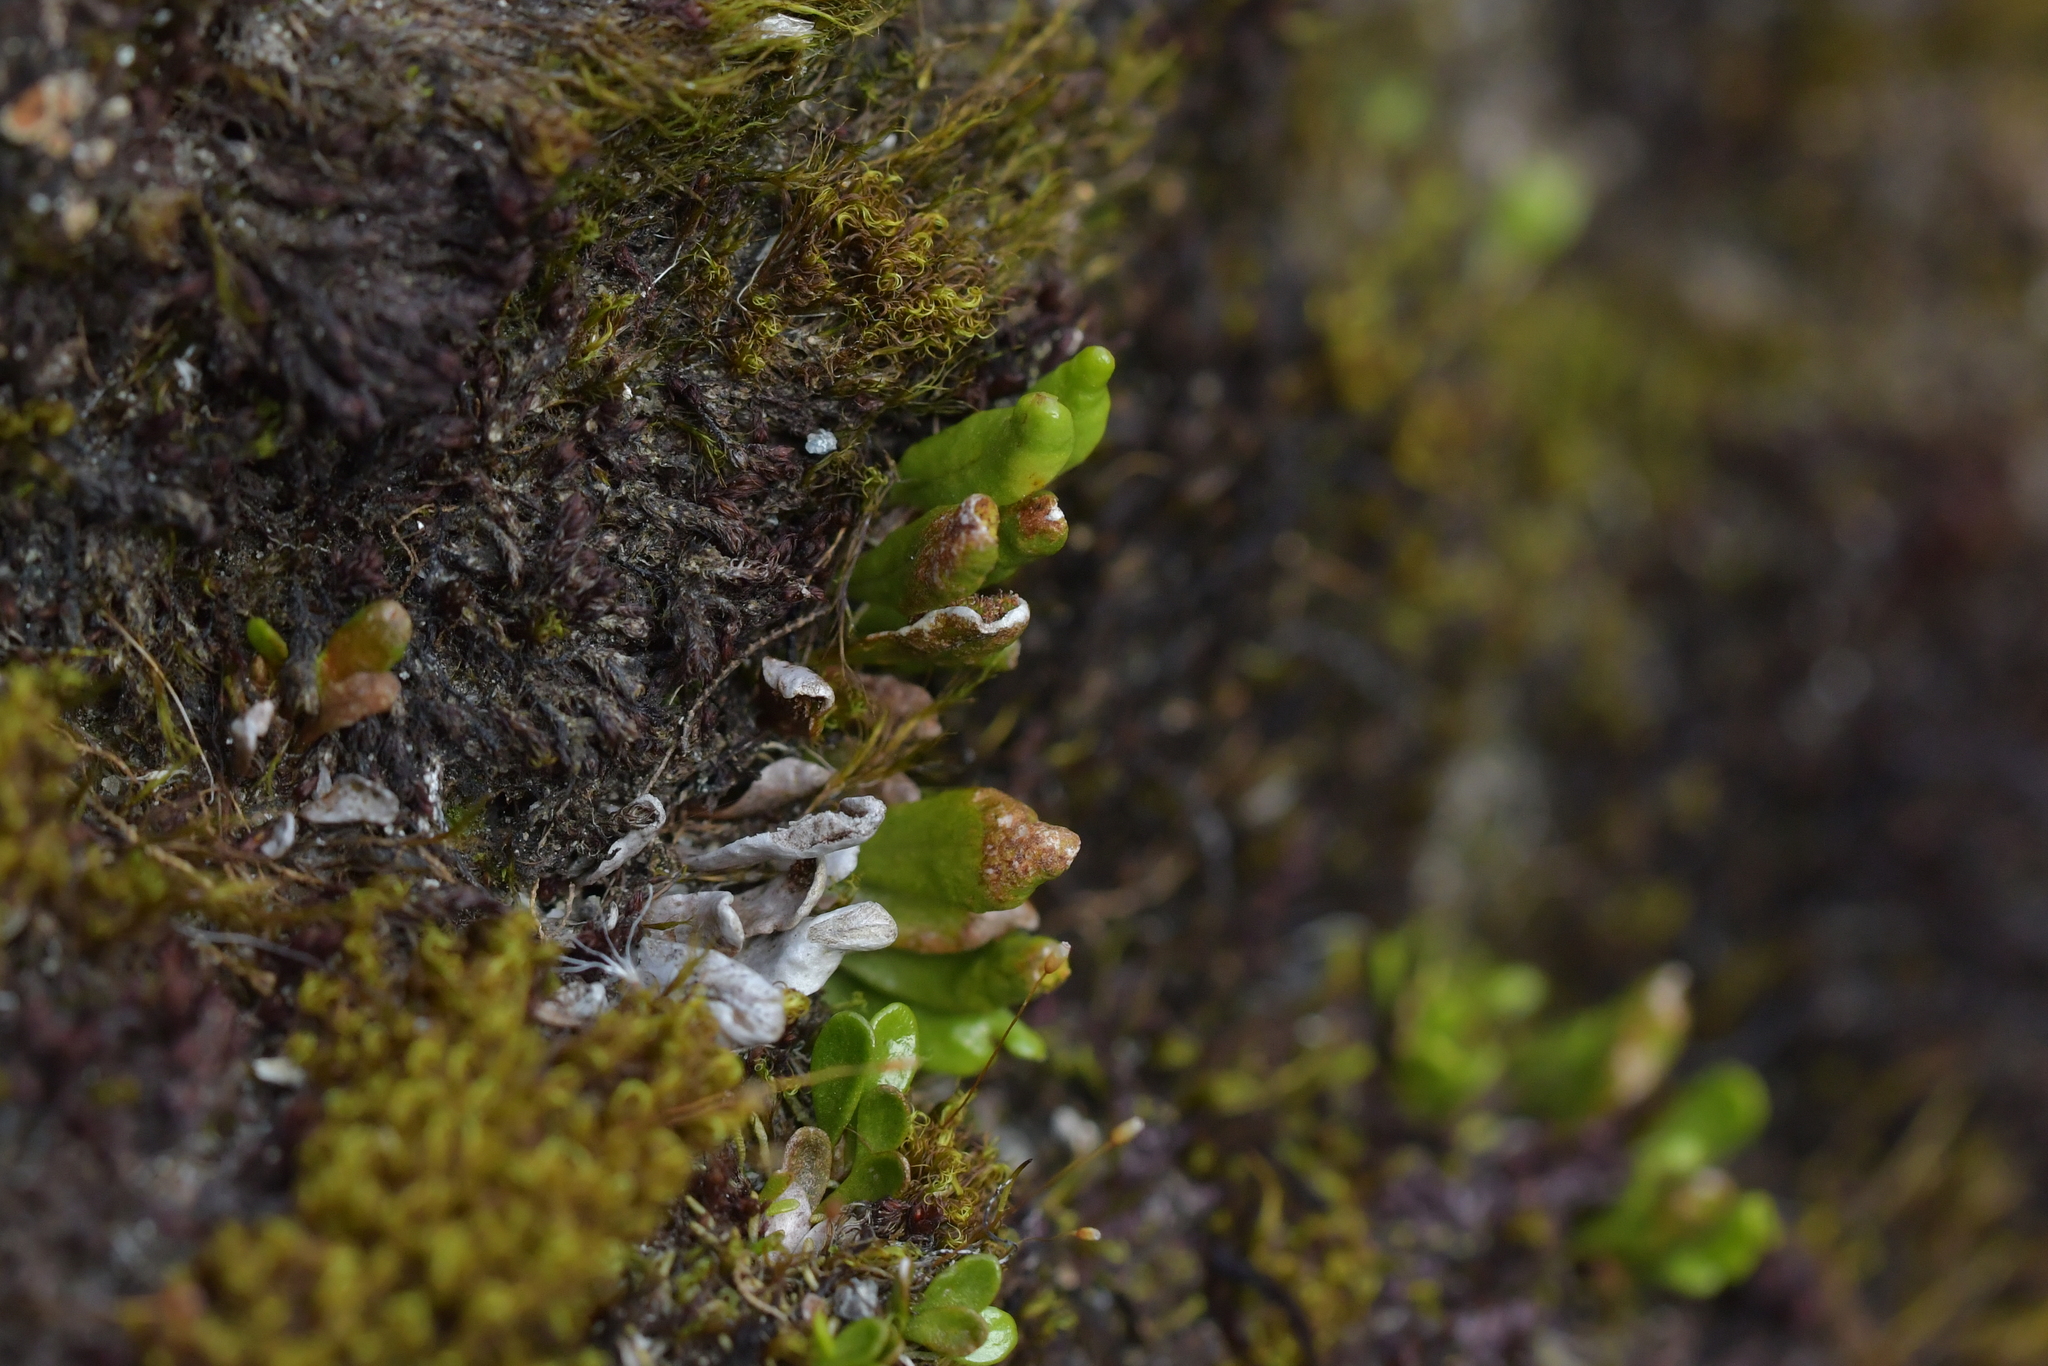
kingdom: Plantae
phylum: Tracheophyta
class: Polypodiopsida
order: Polypodiales
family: Polypodiaceae
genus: Notogrammitis
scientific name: Notogrammitis crassior
